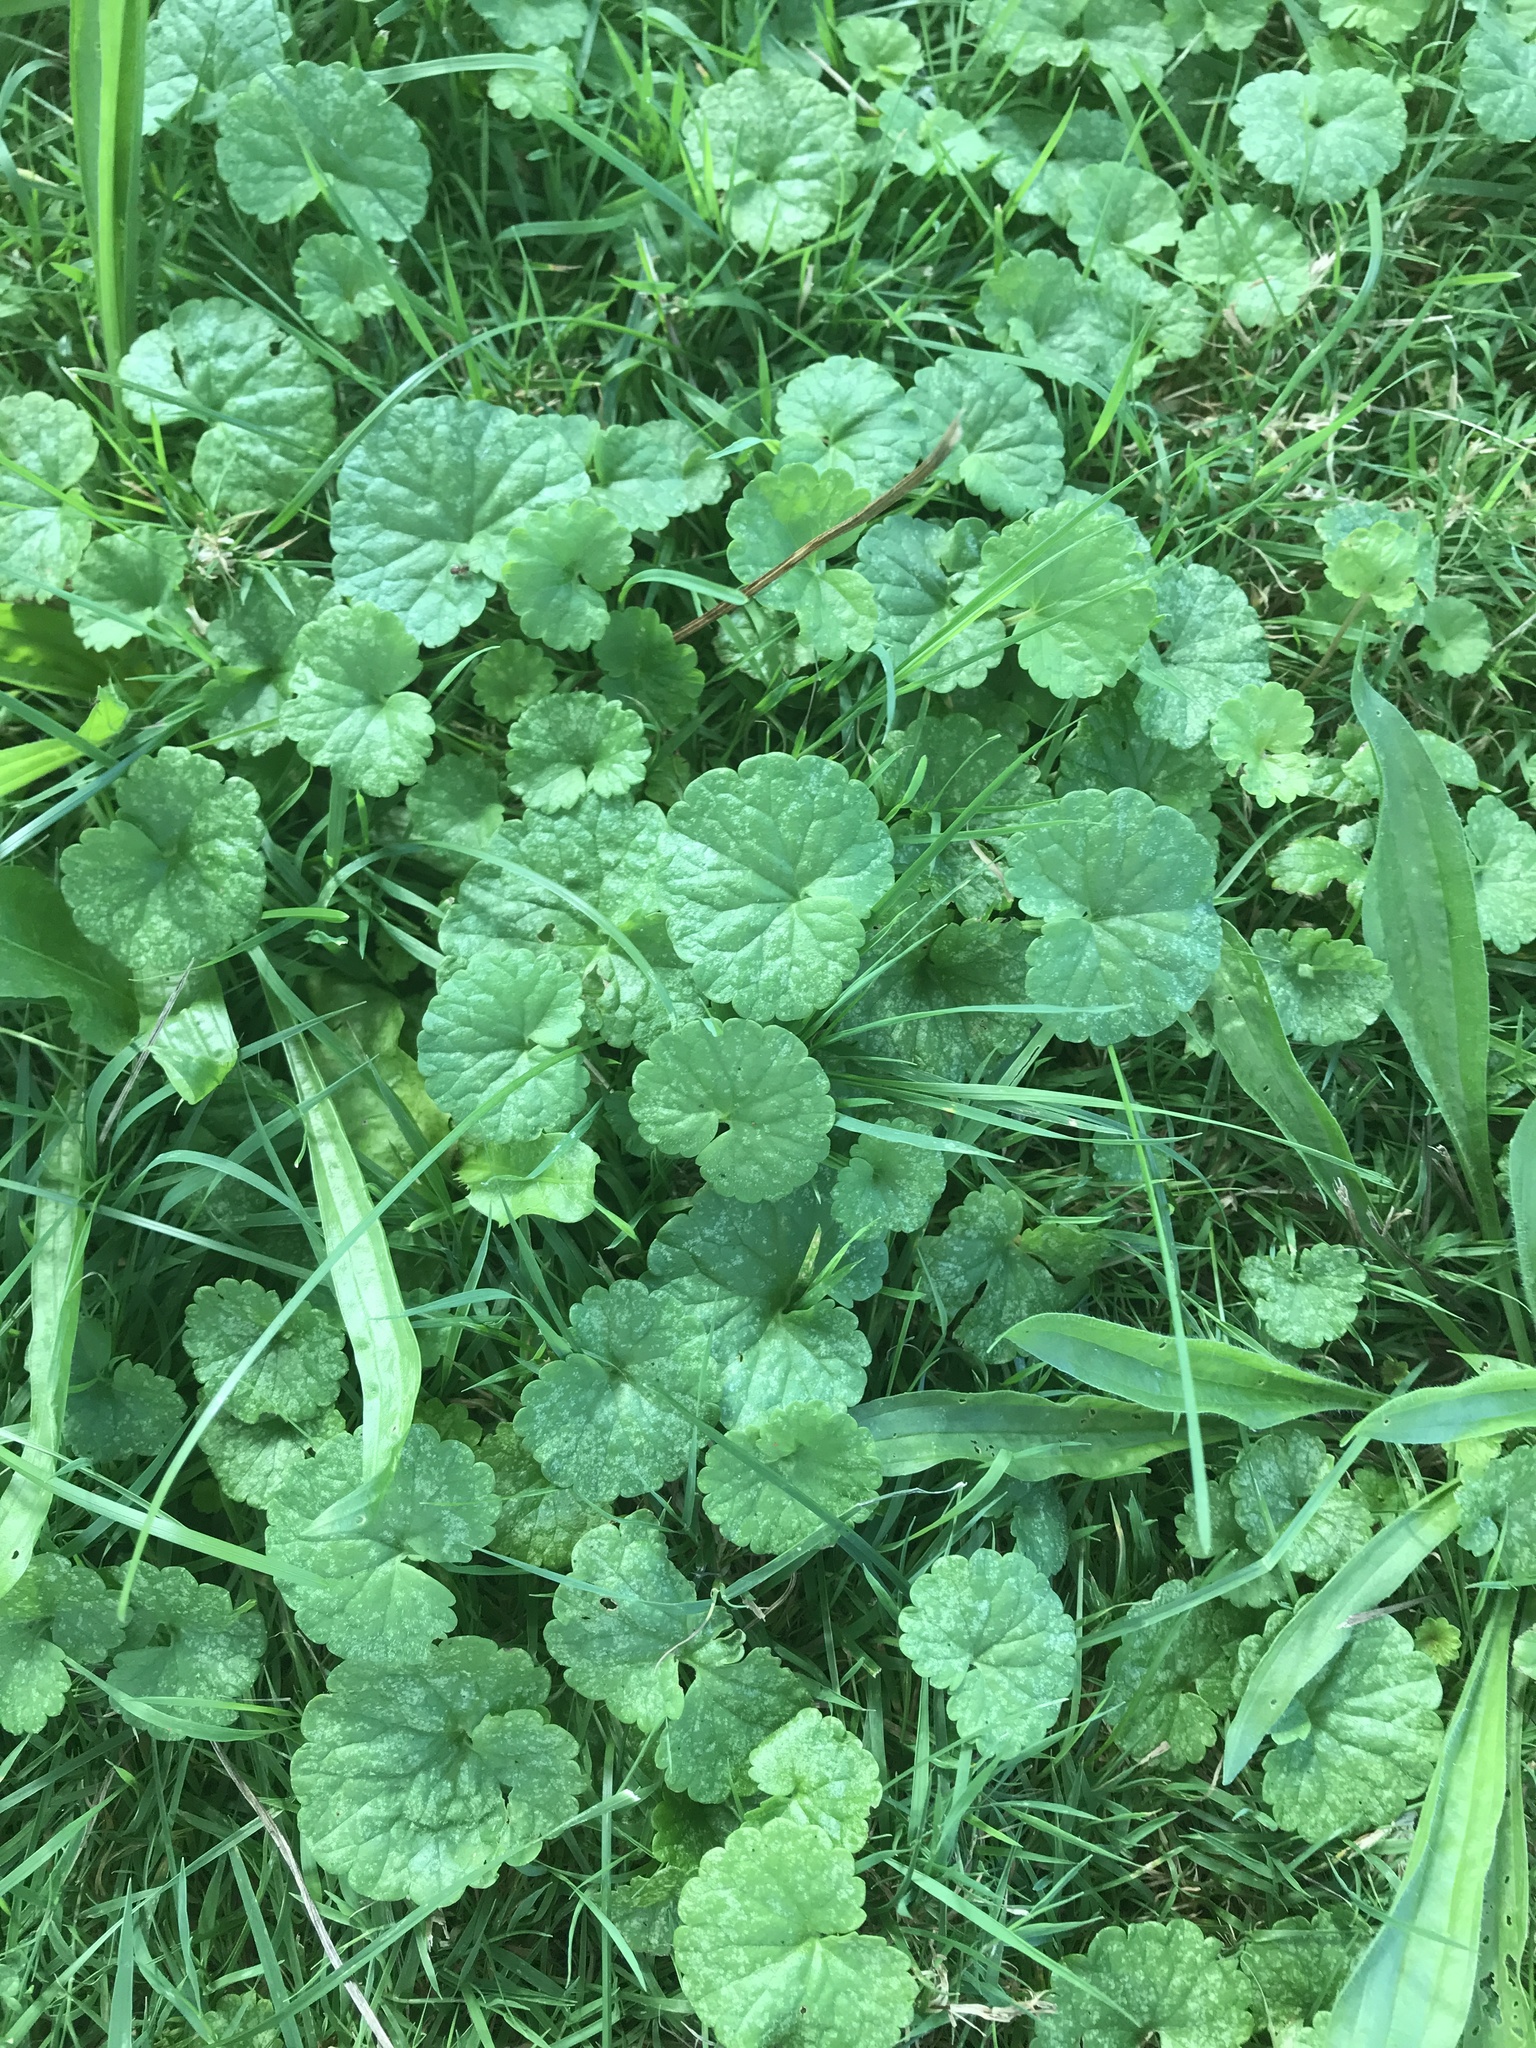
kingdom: Plantae
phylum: Tracheophyta
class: Magnoliopsida
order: Lamiales
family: Lamiaceae
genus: Glechoma
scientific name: Glechoma hederacea
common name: Ground ivy
